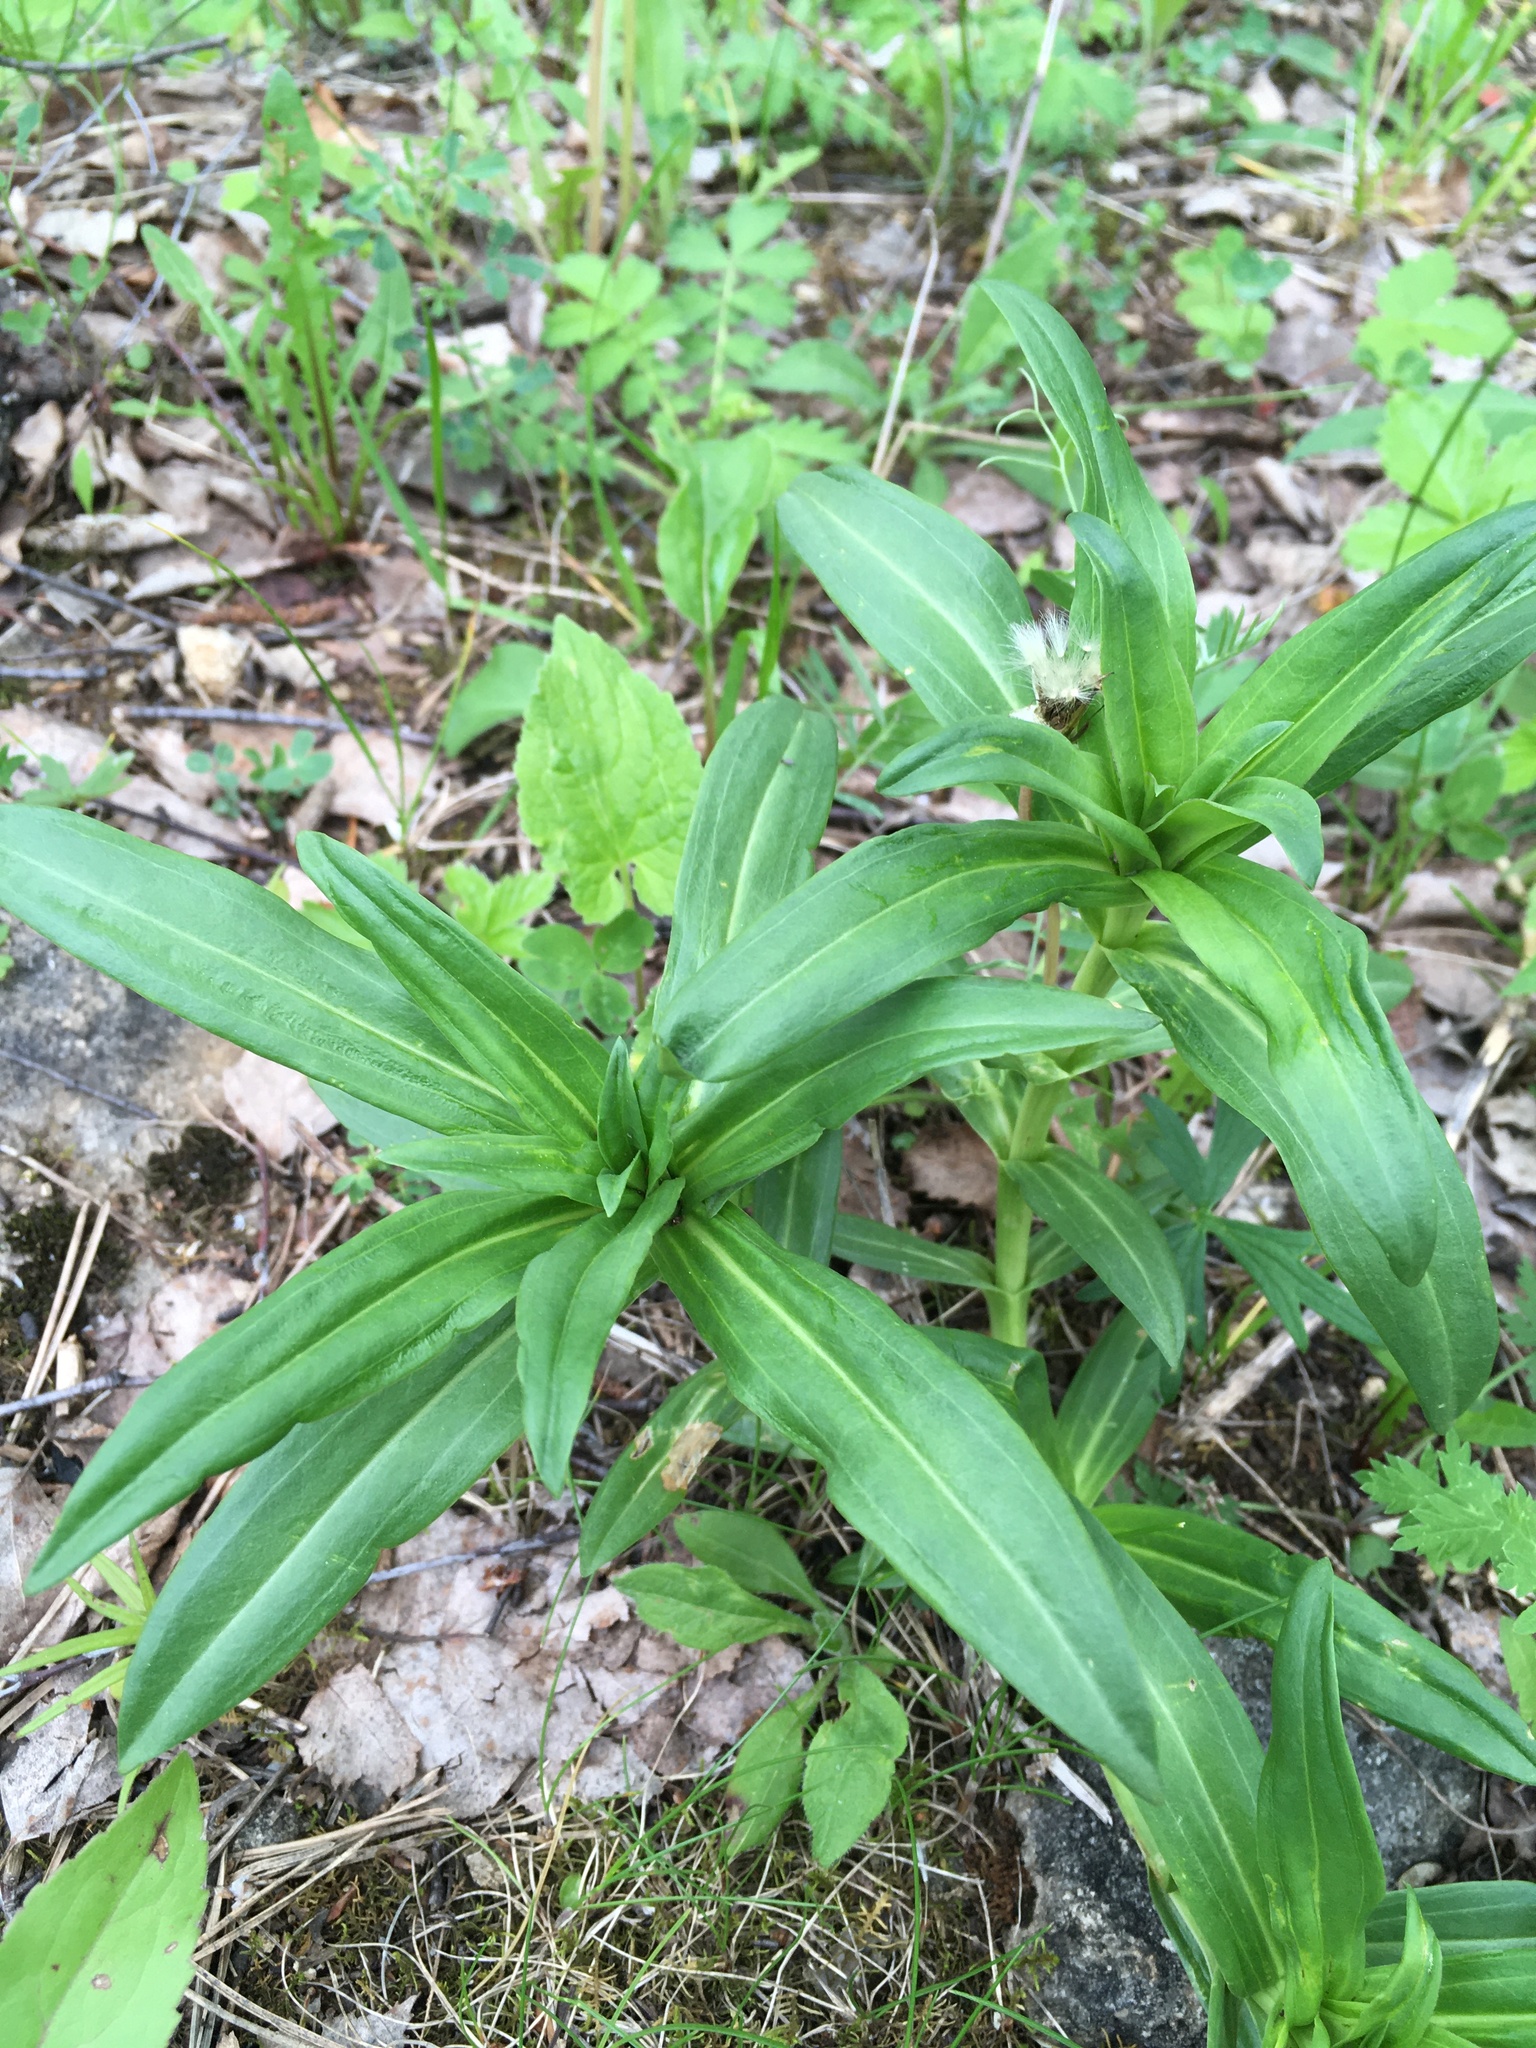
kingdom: Plantae
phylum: Tracheophyta
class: Magnoliopsida
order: Gentianales
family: Gentianaceae
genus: Gentiana
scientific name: Gentiana cruciata
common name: Cross gentian
